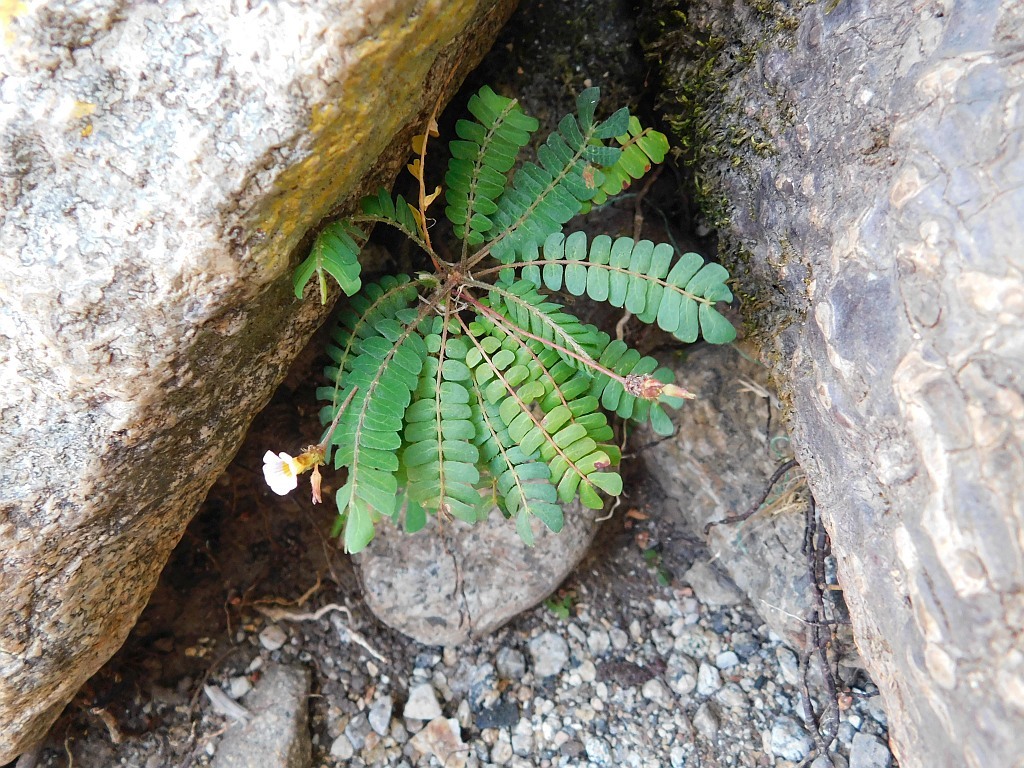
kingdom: Plantae
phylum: Tracheophyta
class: Magnoliopsida
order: Oxalidales
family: Oxalidaceae
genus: Biophytum
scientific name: Biophytum helenae
